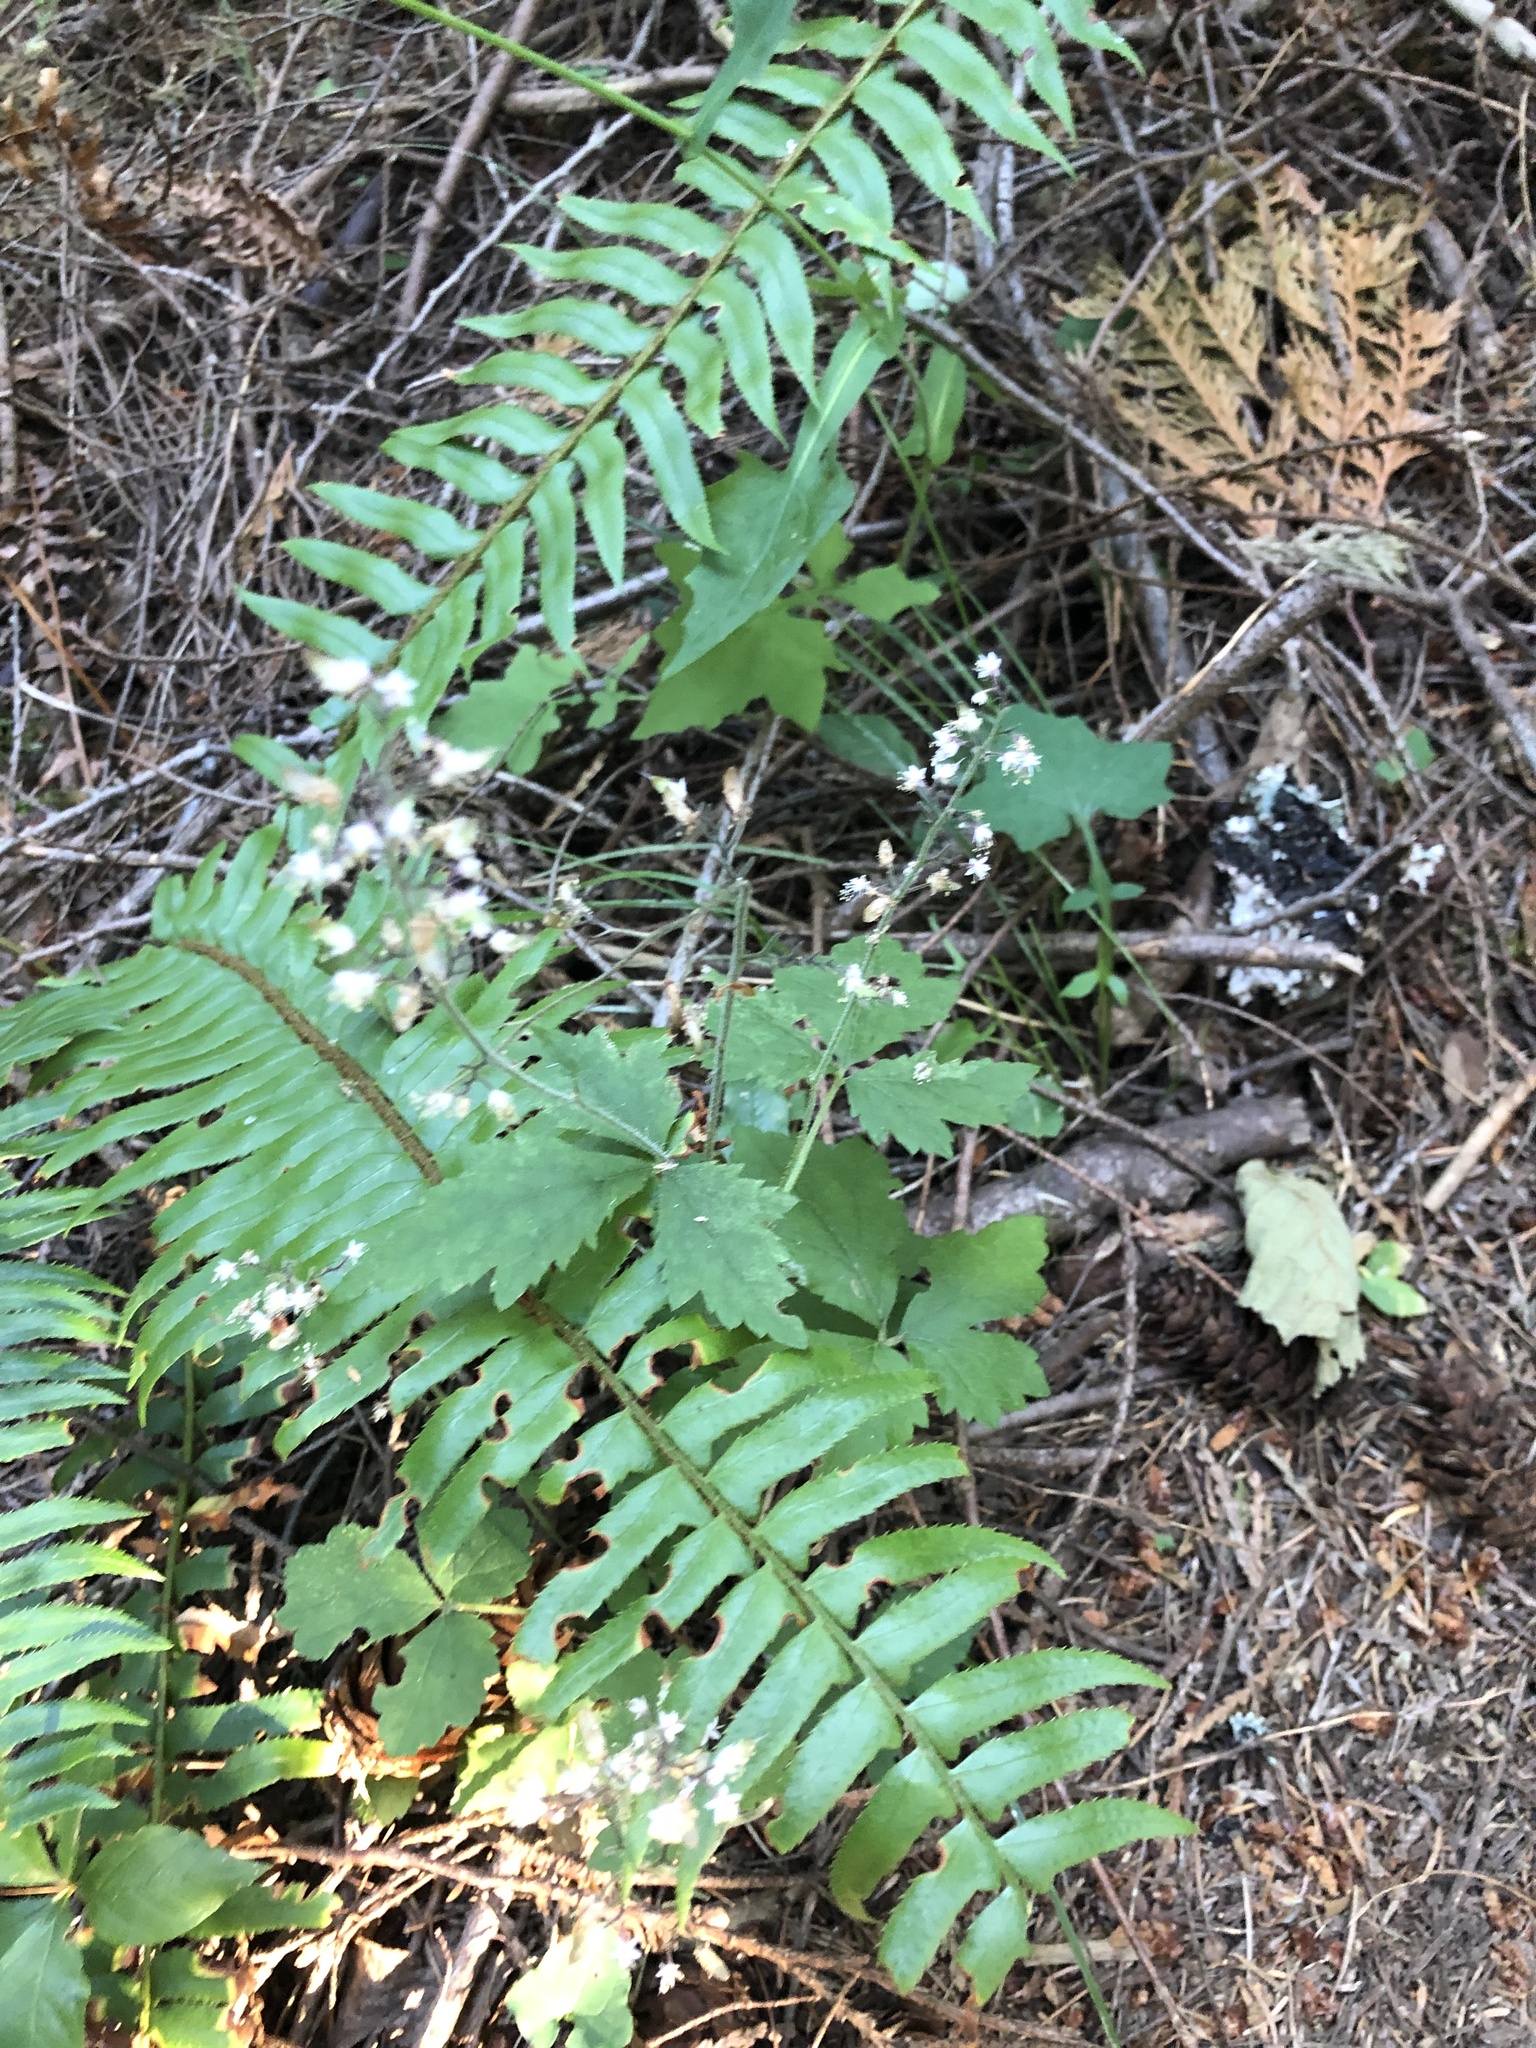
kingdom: Plantae
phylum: Tracheophyta
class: Magnoliopsida
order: Saxifragales
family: Saxifragaceae
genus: Tiarella
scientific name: Tiarella trifoliata
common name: Sugar-scoop
